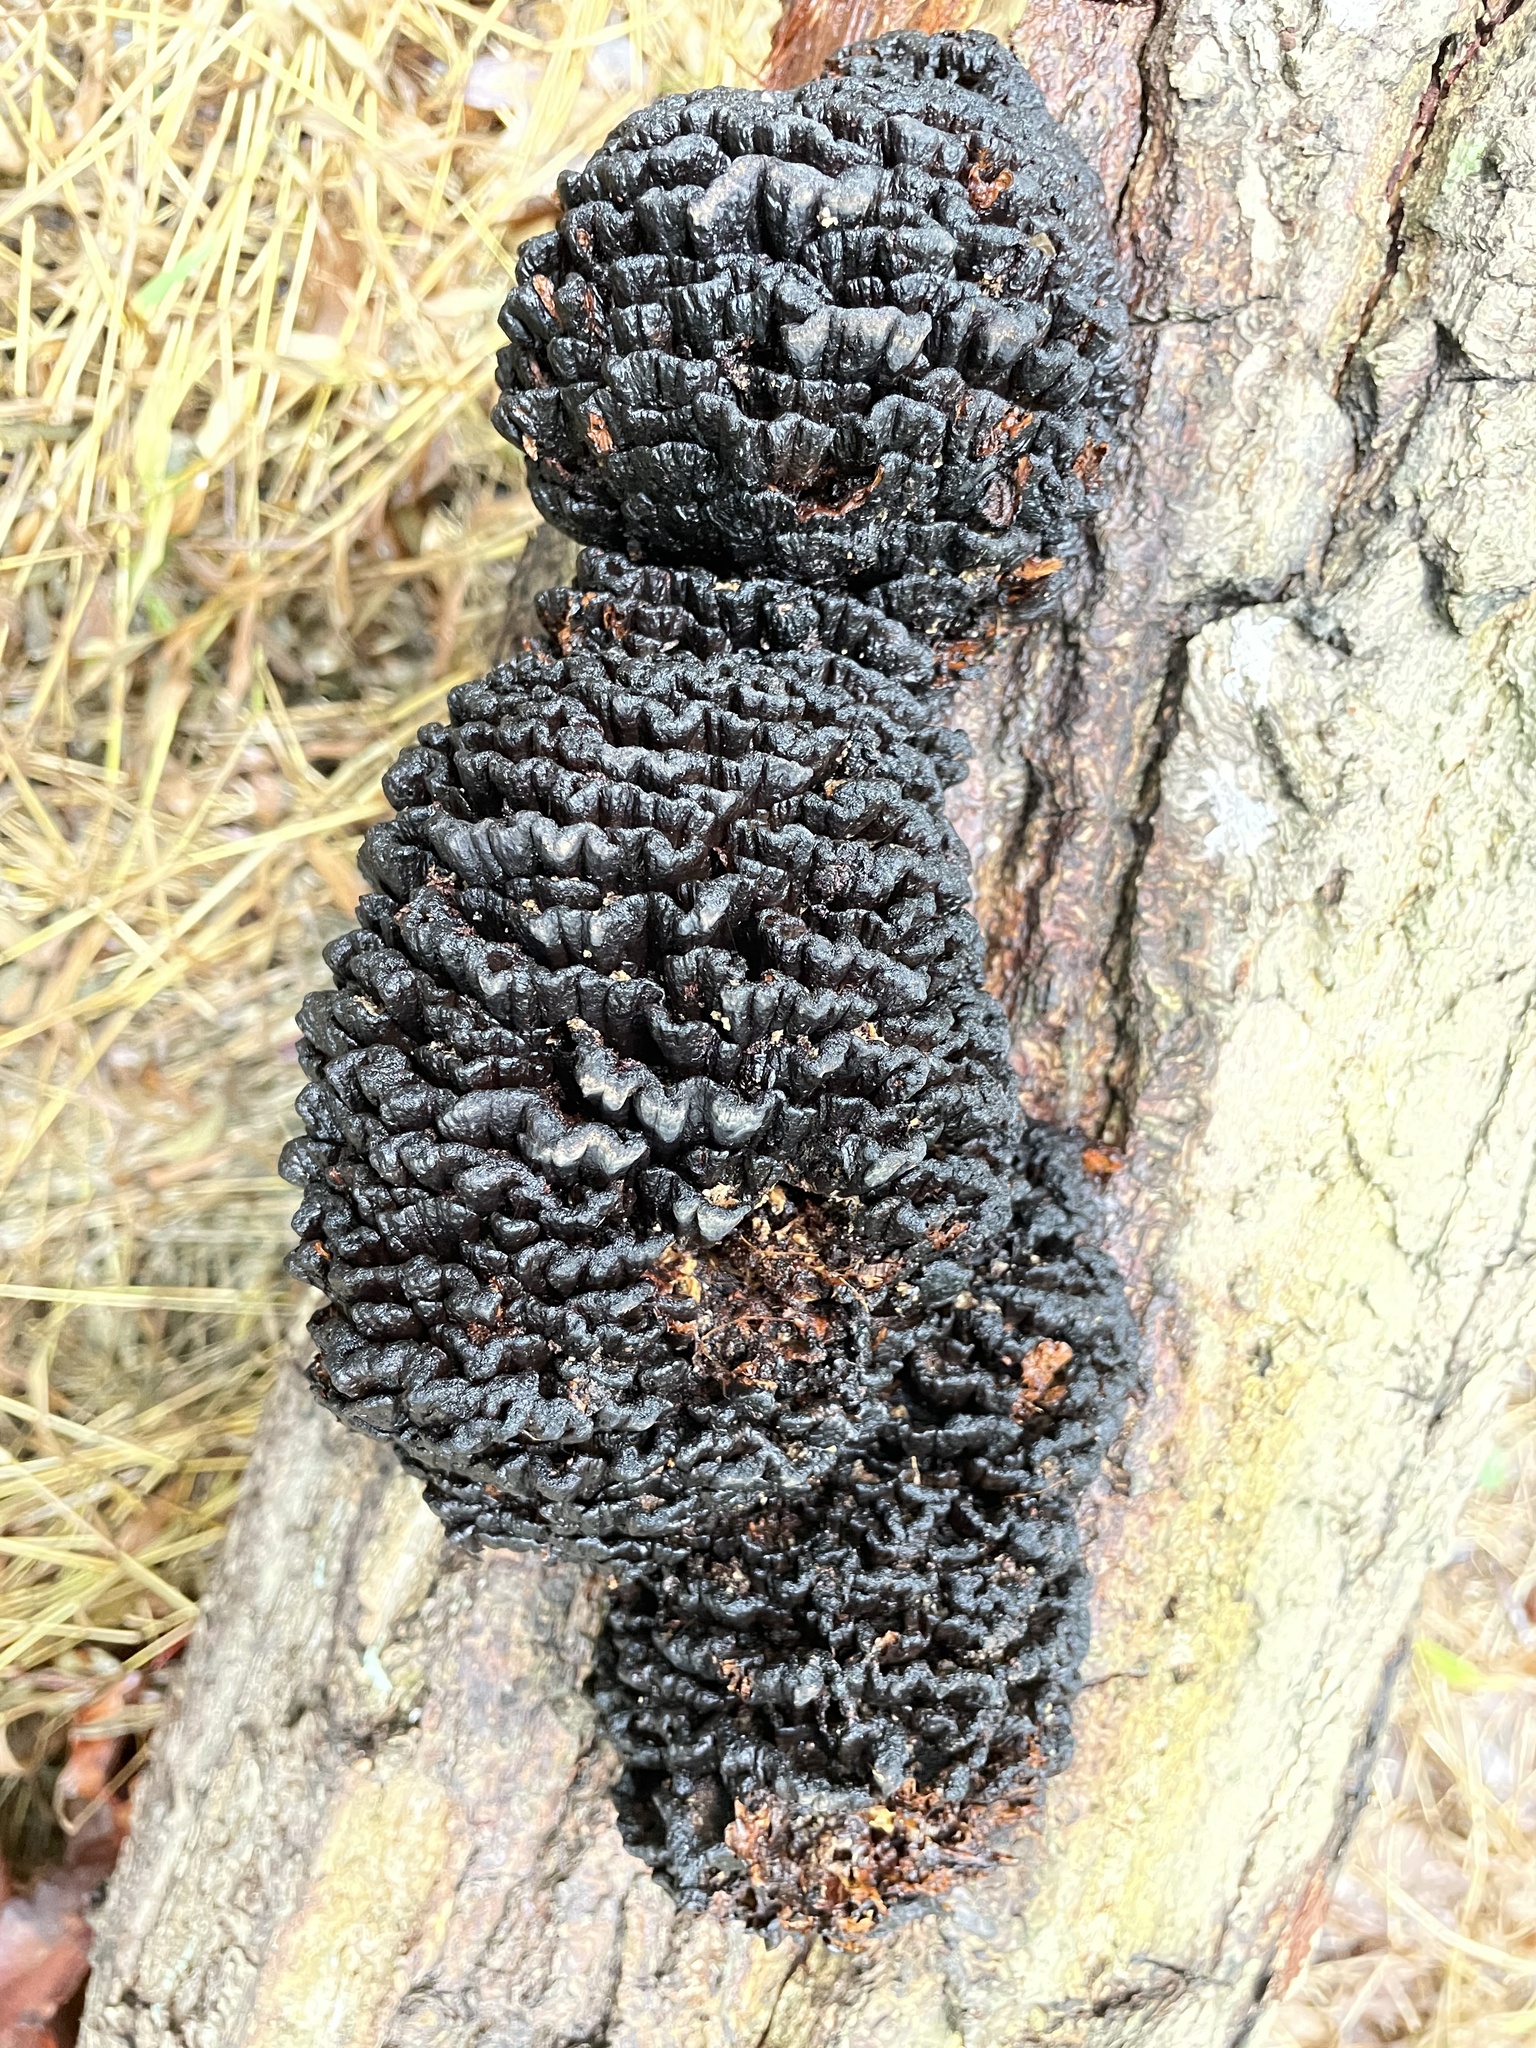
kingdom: Fungi
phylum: Basidiomycota
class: Agaricomycetes
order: Polyporales
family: Polyporaceae
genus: Globifomes
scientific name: Globifomes graveolens
